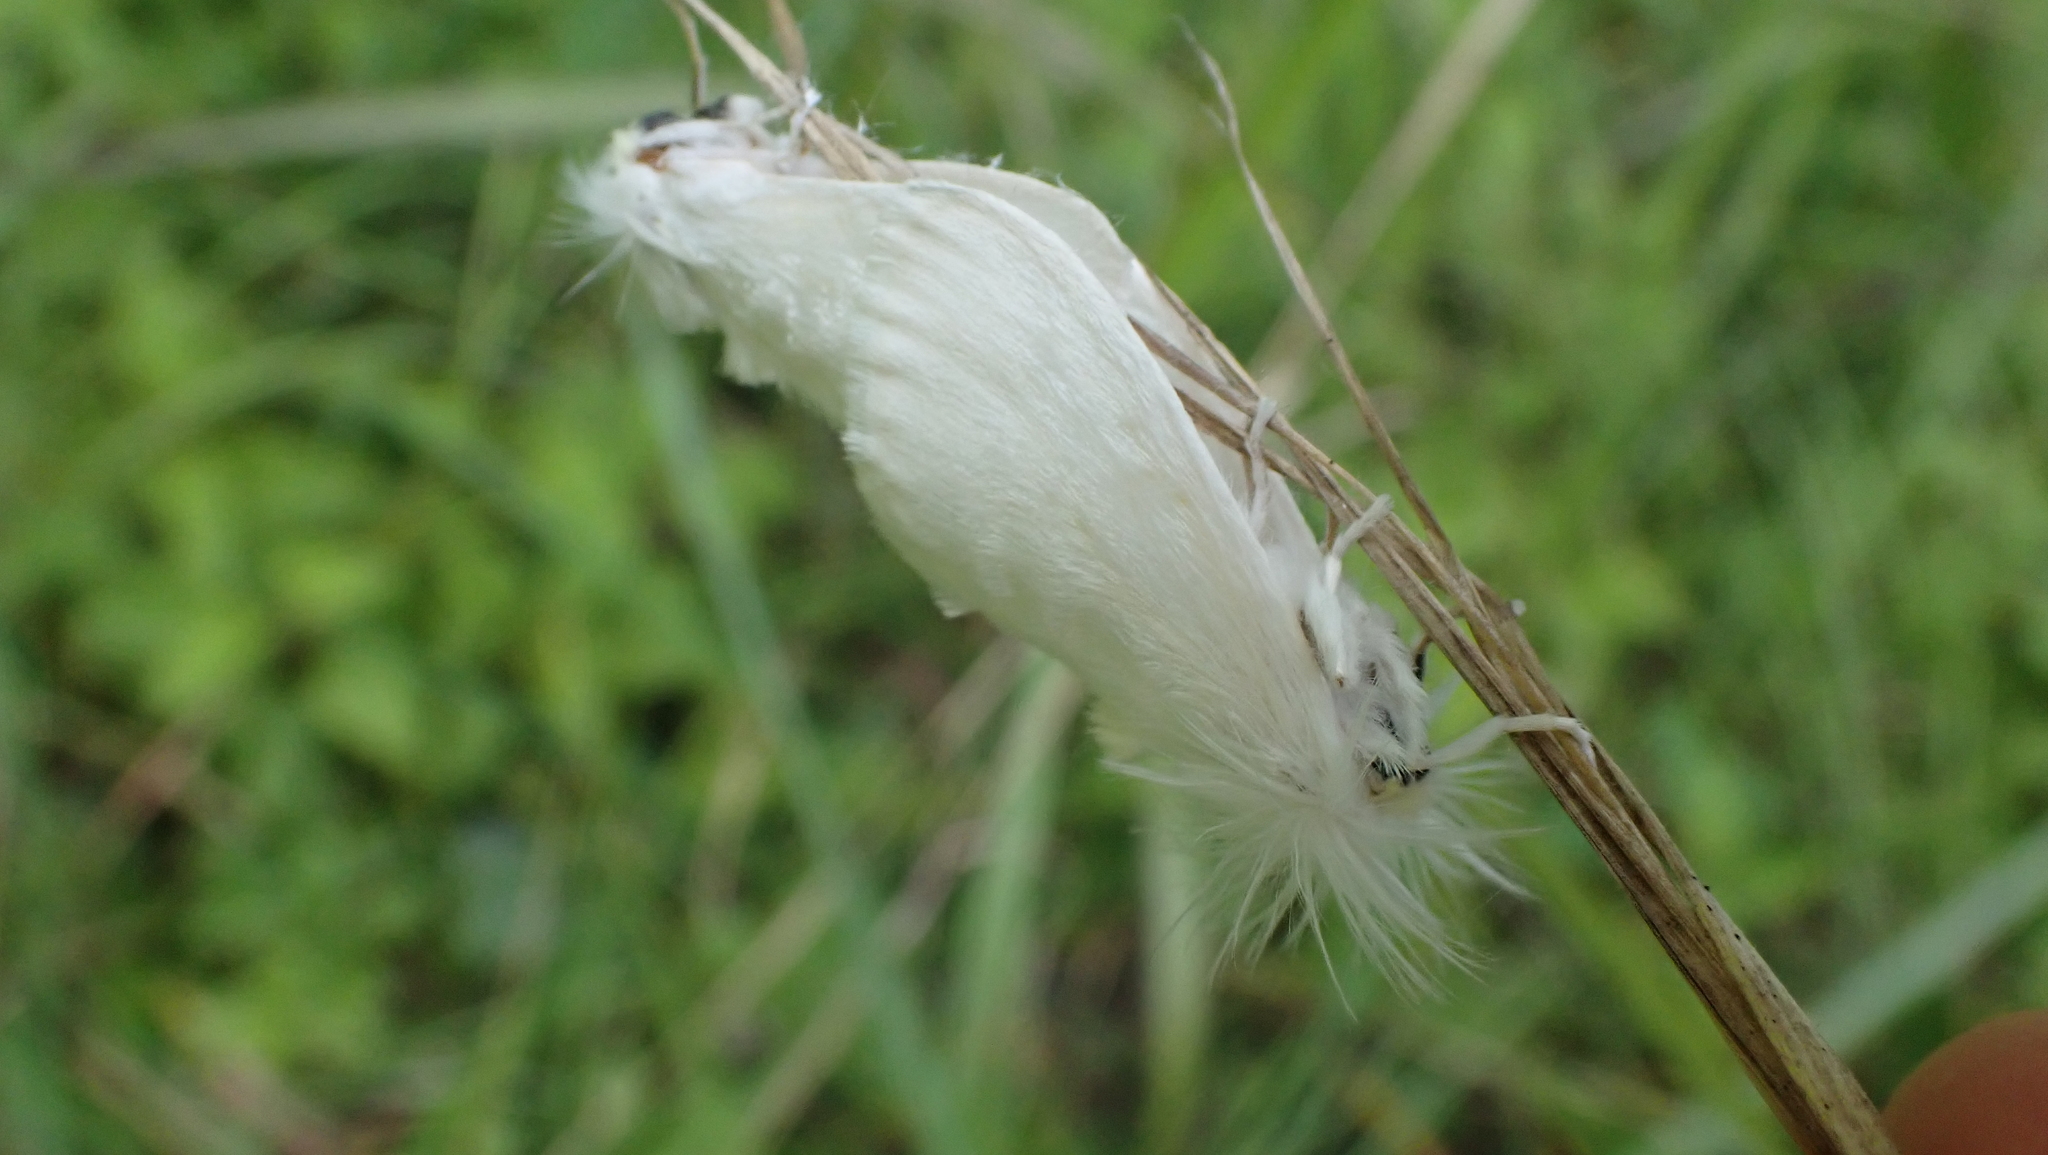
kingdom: Animalia
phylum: Arthropoda
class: Insecta
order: Lepidoptera
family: Megalopygidae
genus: Norape
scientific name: Norape cretata
